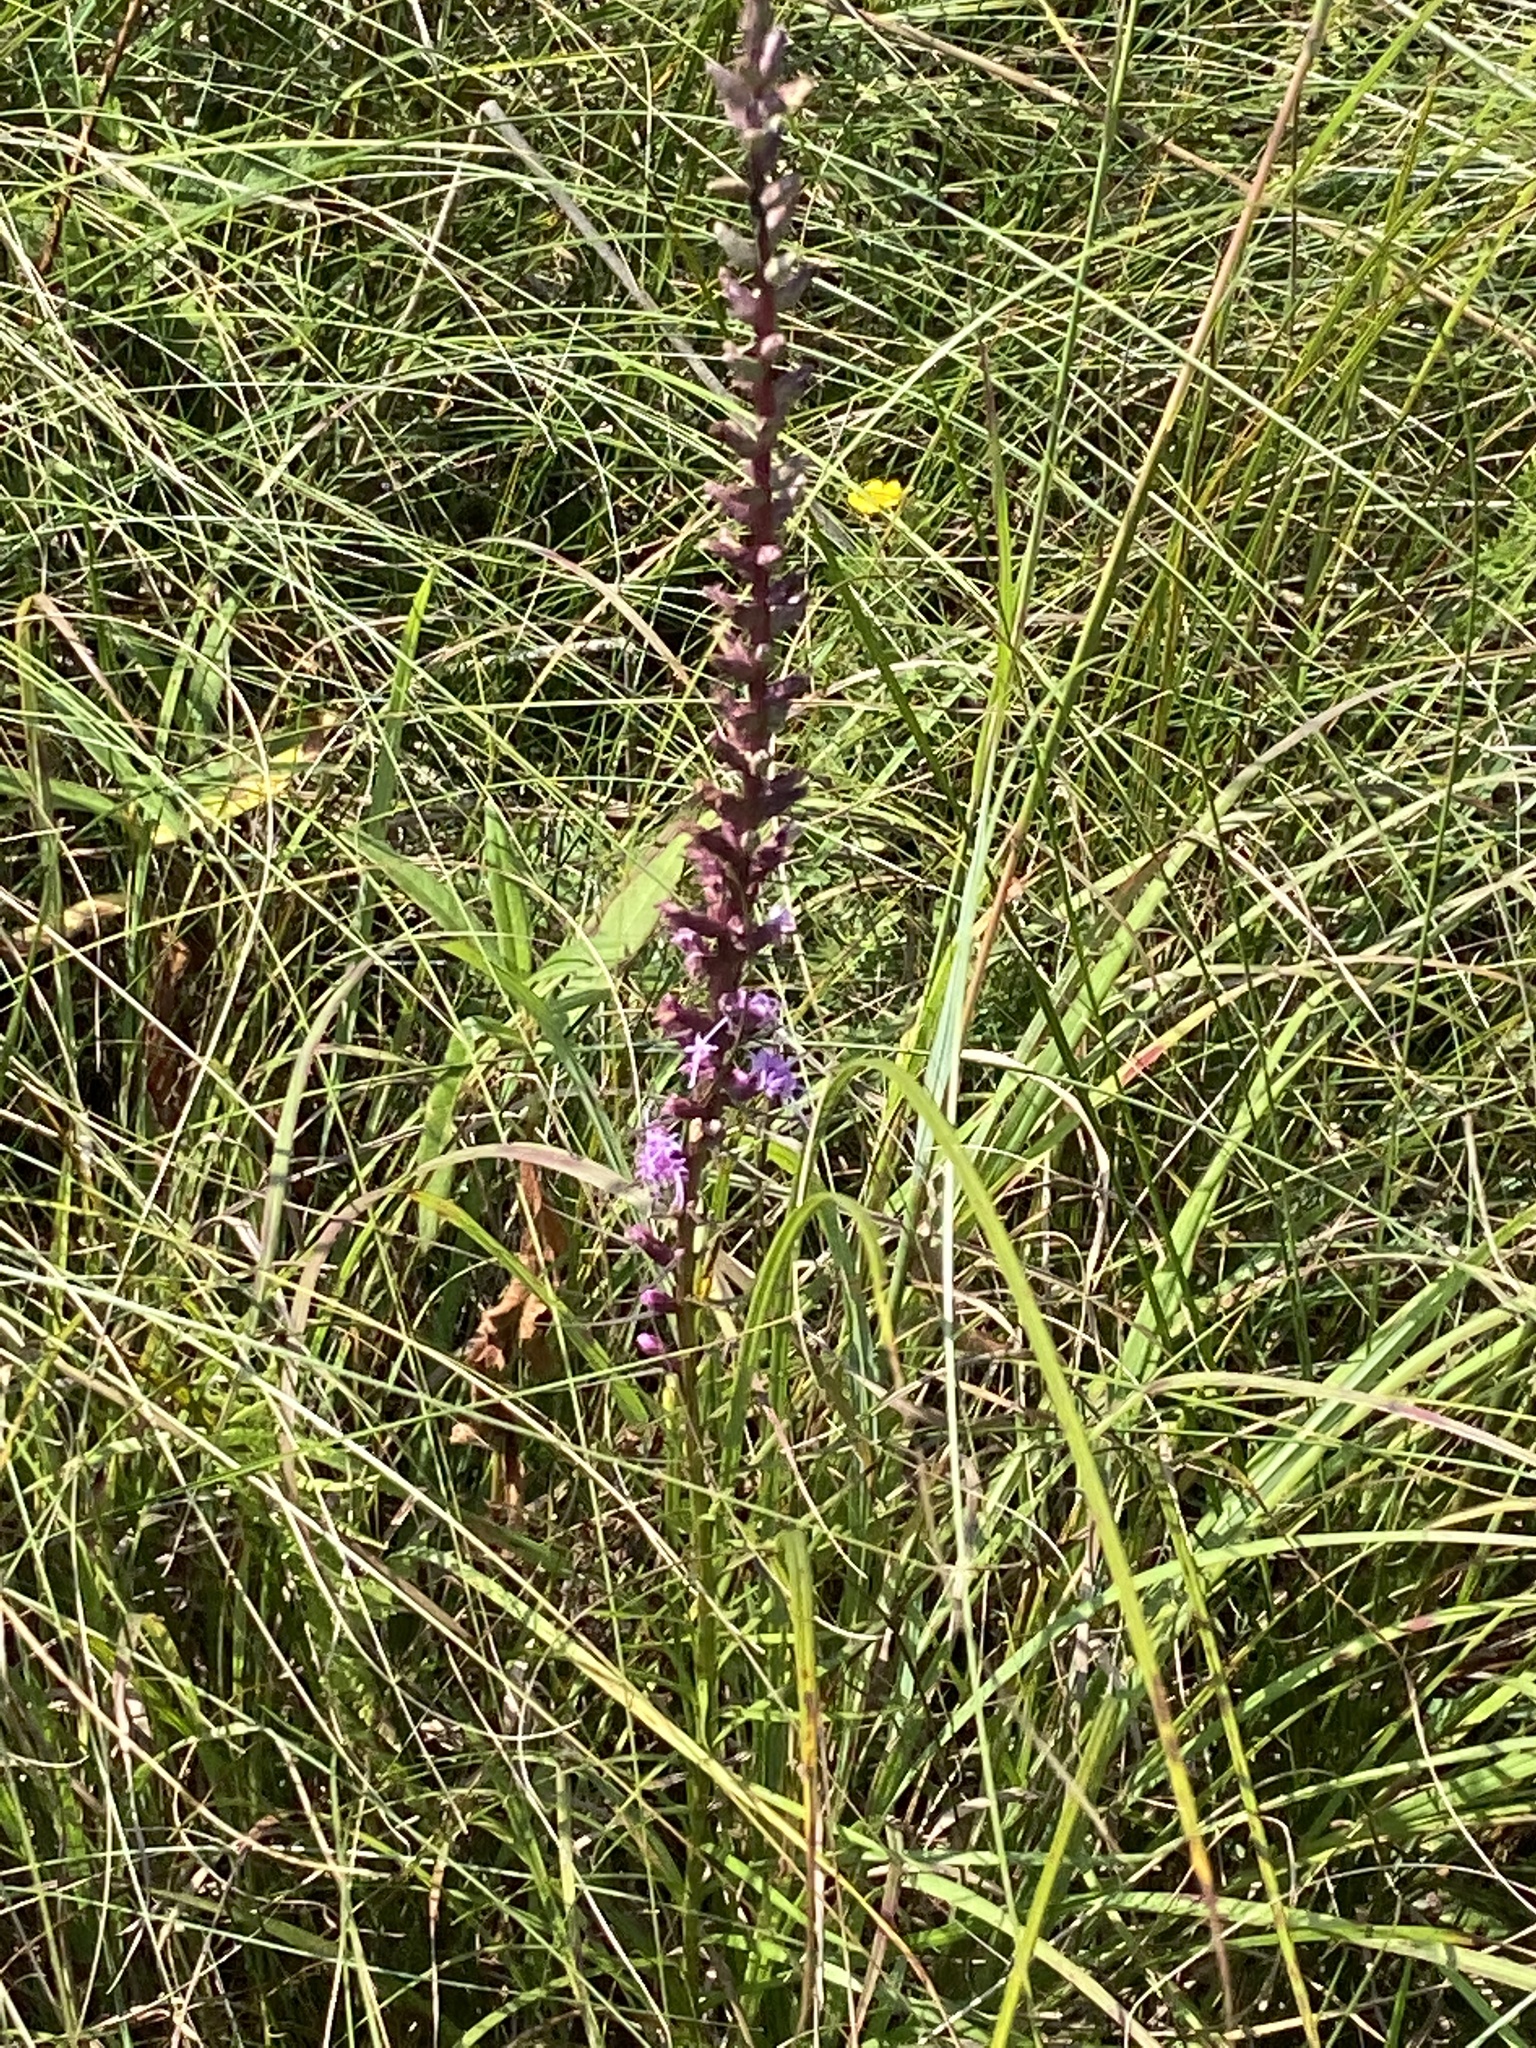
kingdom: Plantae
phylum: Tracheophyta
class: Magnoliopsida
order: Asterales
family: Asteraceae
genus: Liatris
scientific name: Liatris spicata
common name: Florist gayfeather
